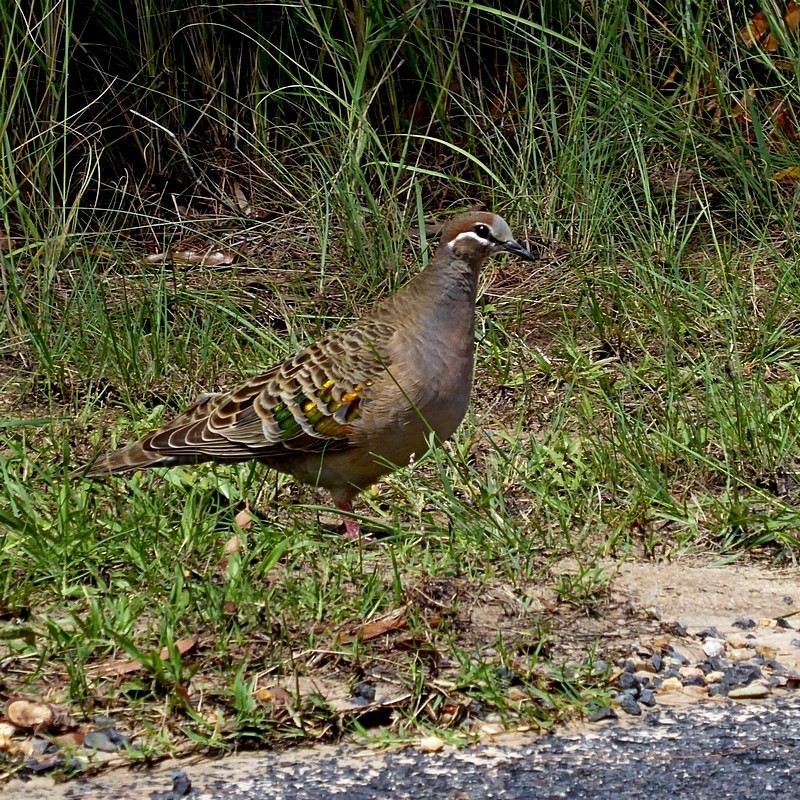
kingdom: Animalia
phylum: Chordata
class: Aves
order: Columbiformes
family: Columbidae
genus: Phaps
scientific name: Phaps chalcoptera
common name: Common bronzewing
